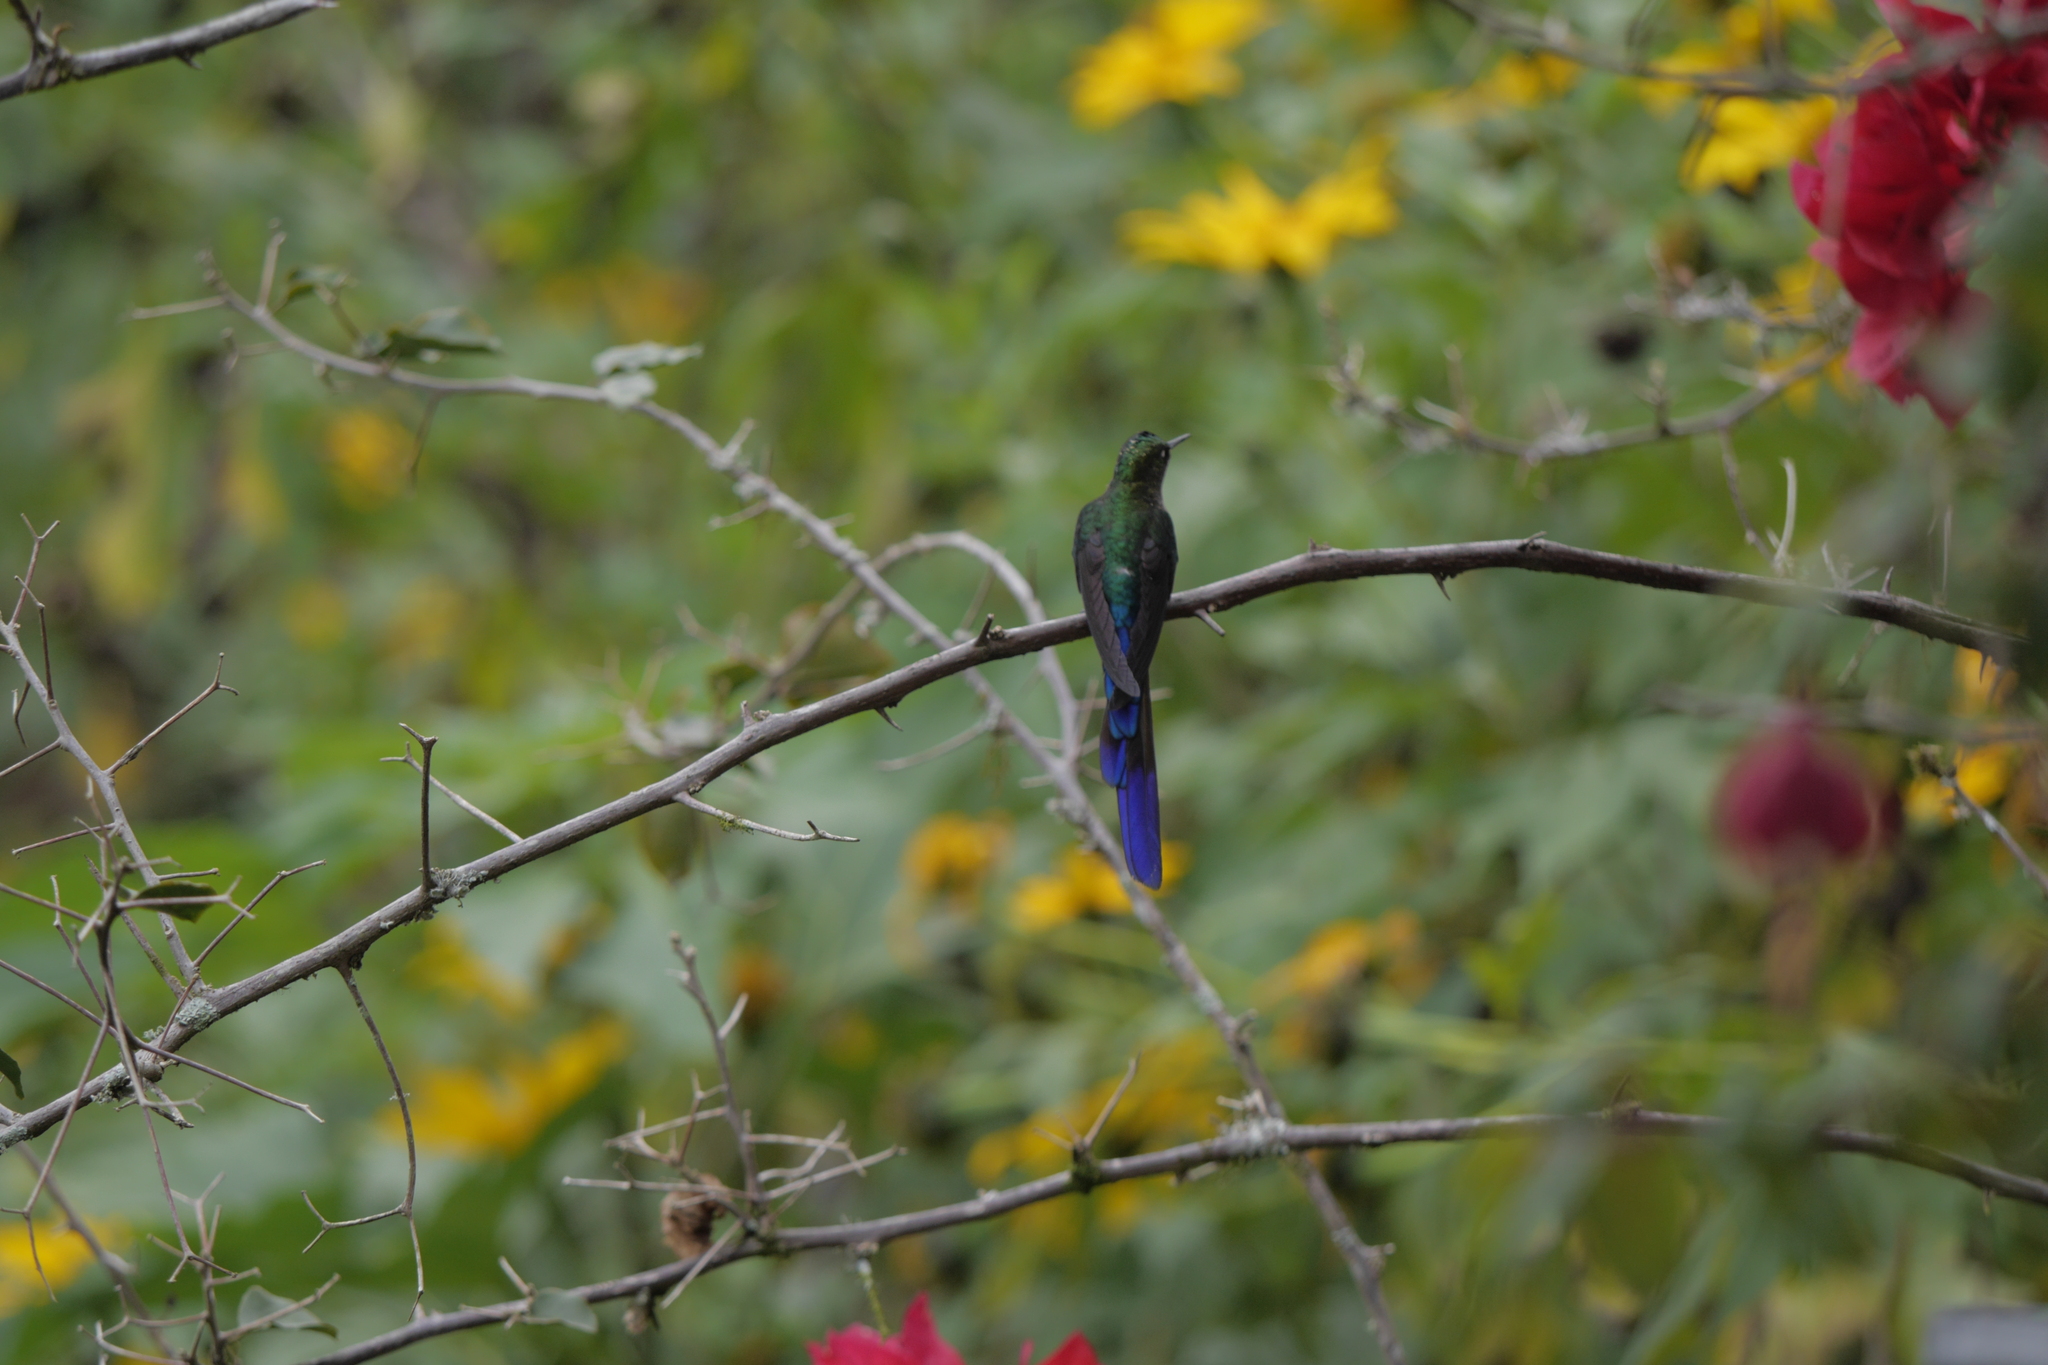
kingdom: Animalia
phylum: Chordata
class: Aves
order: Apodiformes
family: Trochilidae
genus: Aglaiocercus
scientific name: Aglaiocercus coelestis
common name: Violet-tailed sylph
